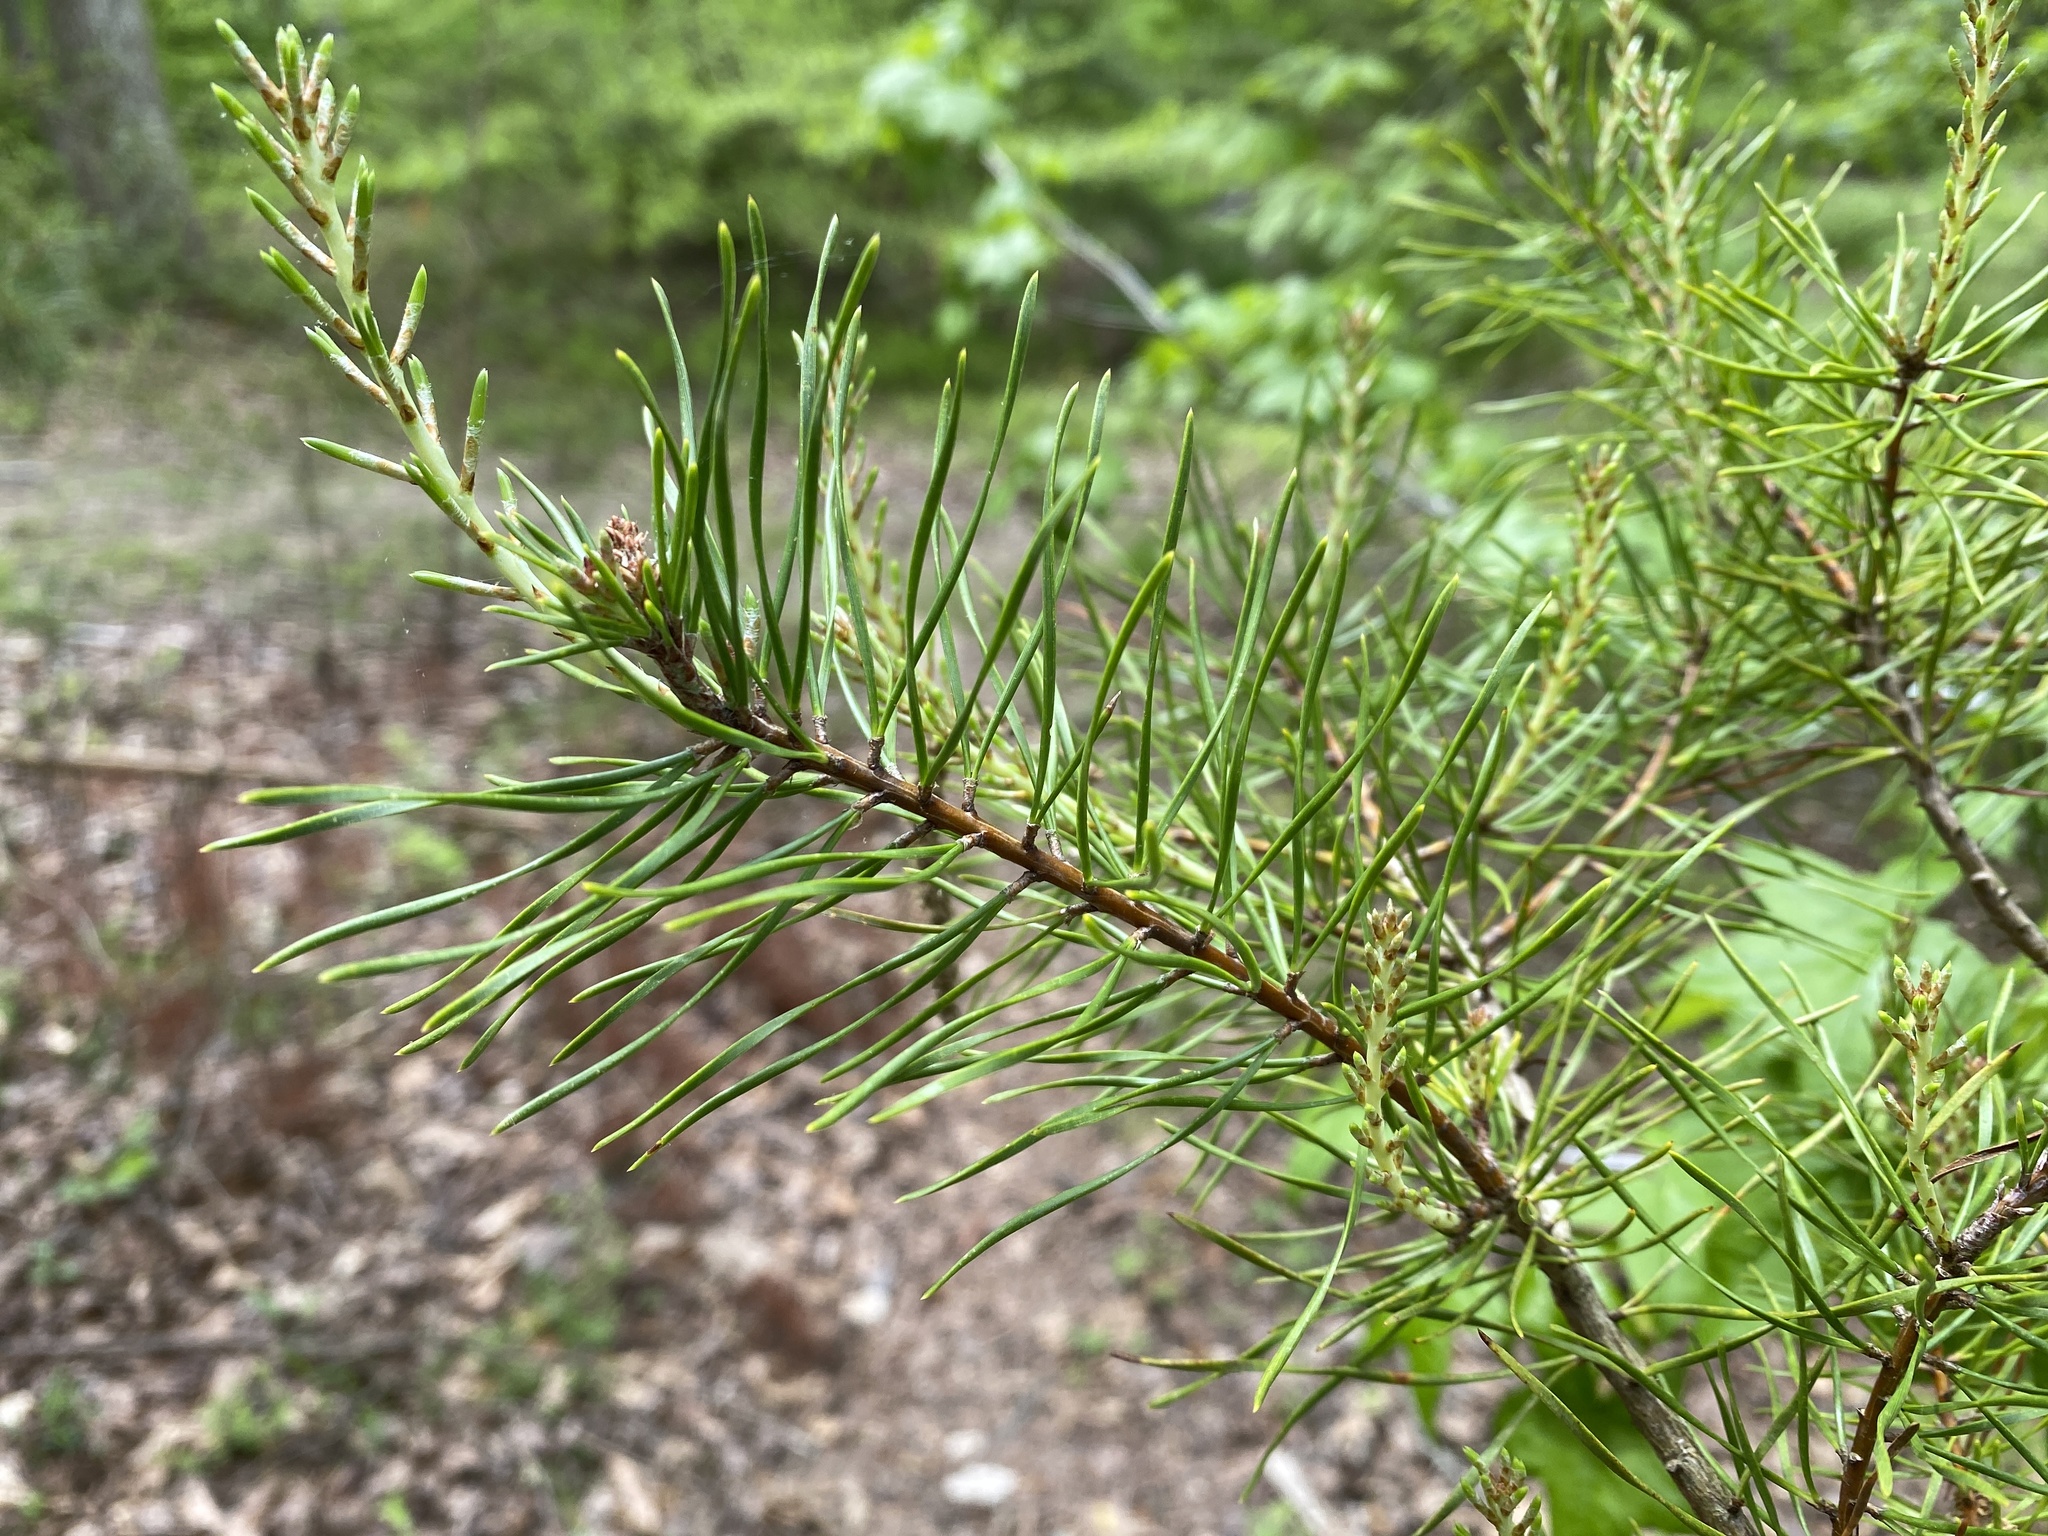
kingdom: Plantae
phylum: Tracheophyta
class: Pinopsida
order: Pinales
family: Pinaceae
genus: Pinus
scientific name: Pinus virginiana
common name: Scrub pine
